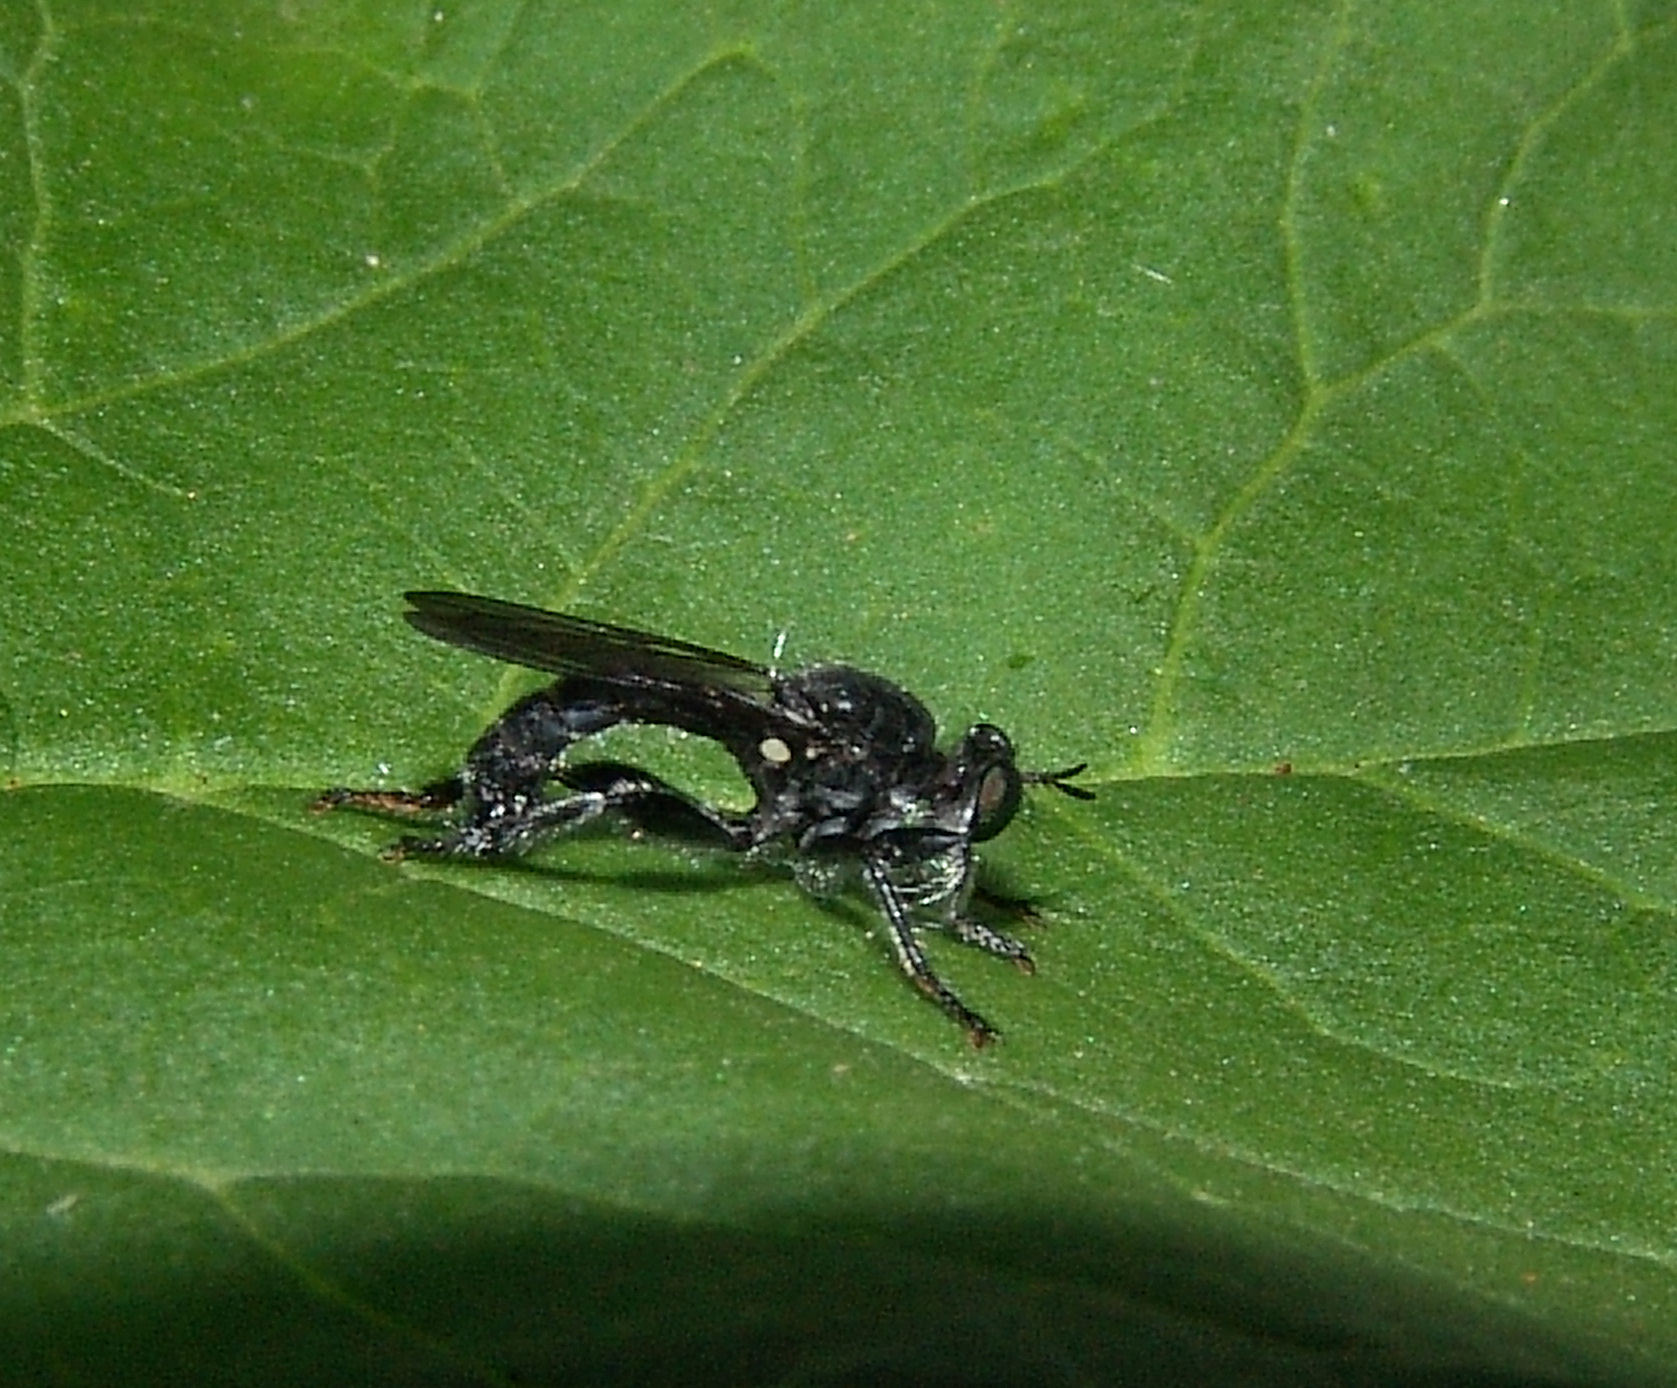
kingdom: Animalia
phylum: Arthropoda
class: Insecta
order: Diptera
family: Asilidae
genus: Laphria
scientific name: Laphria sicula
